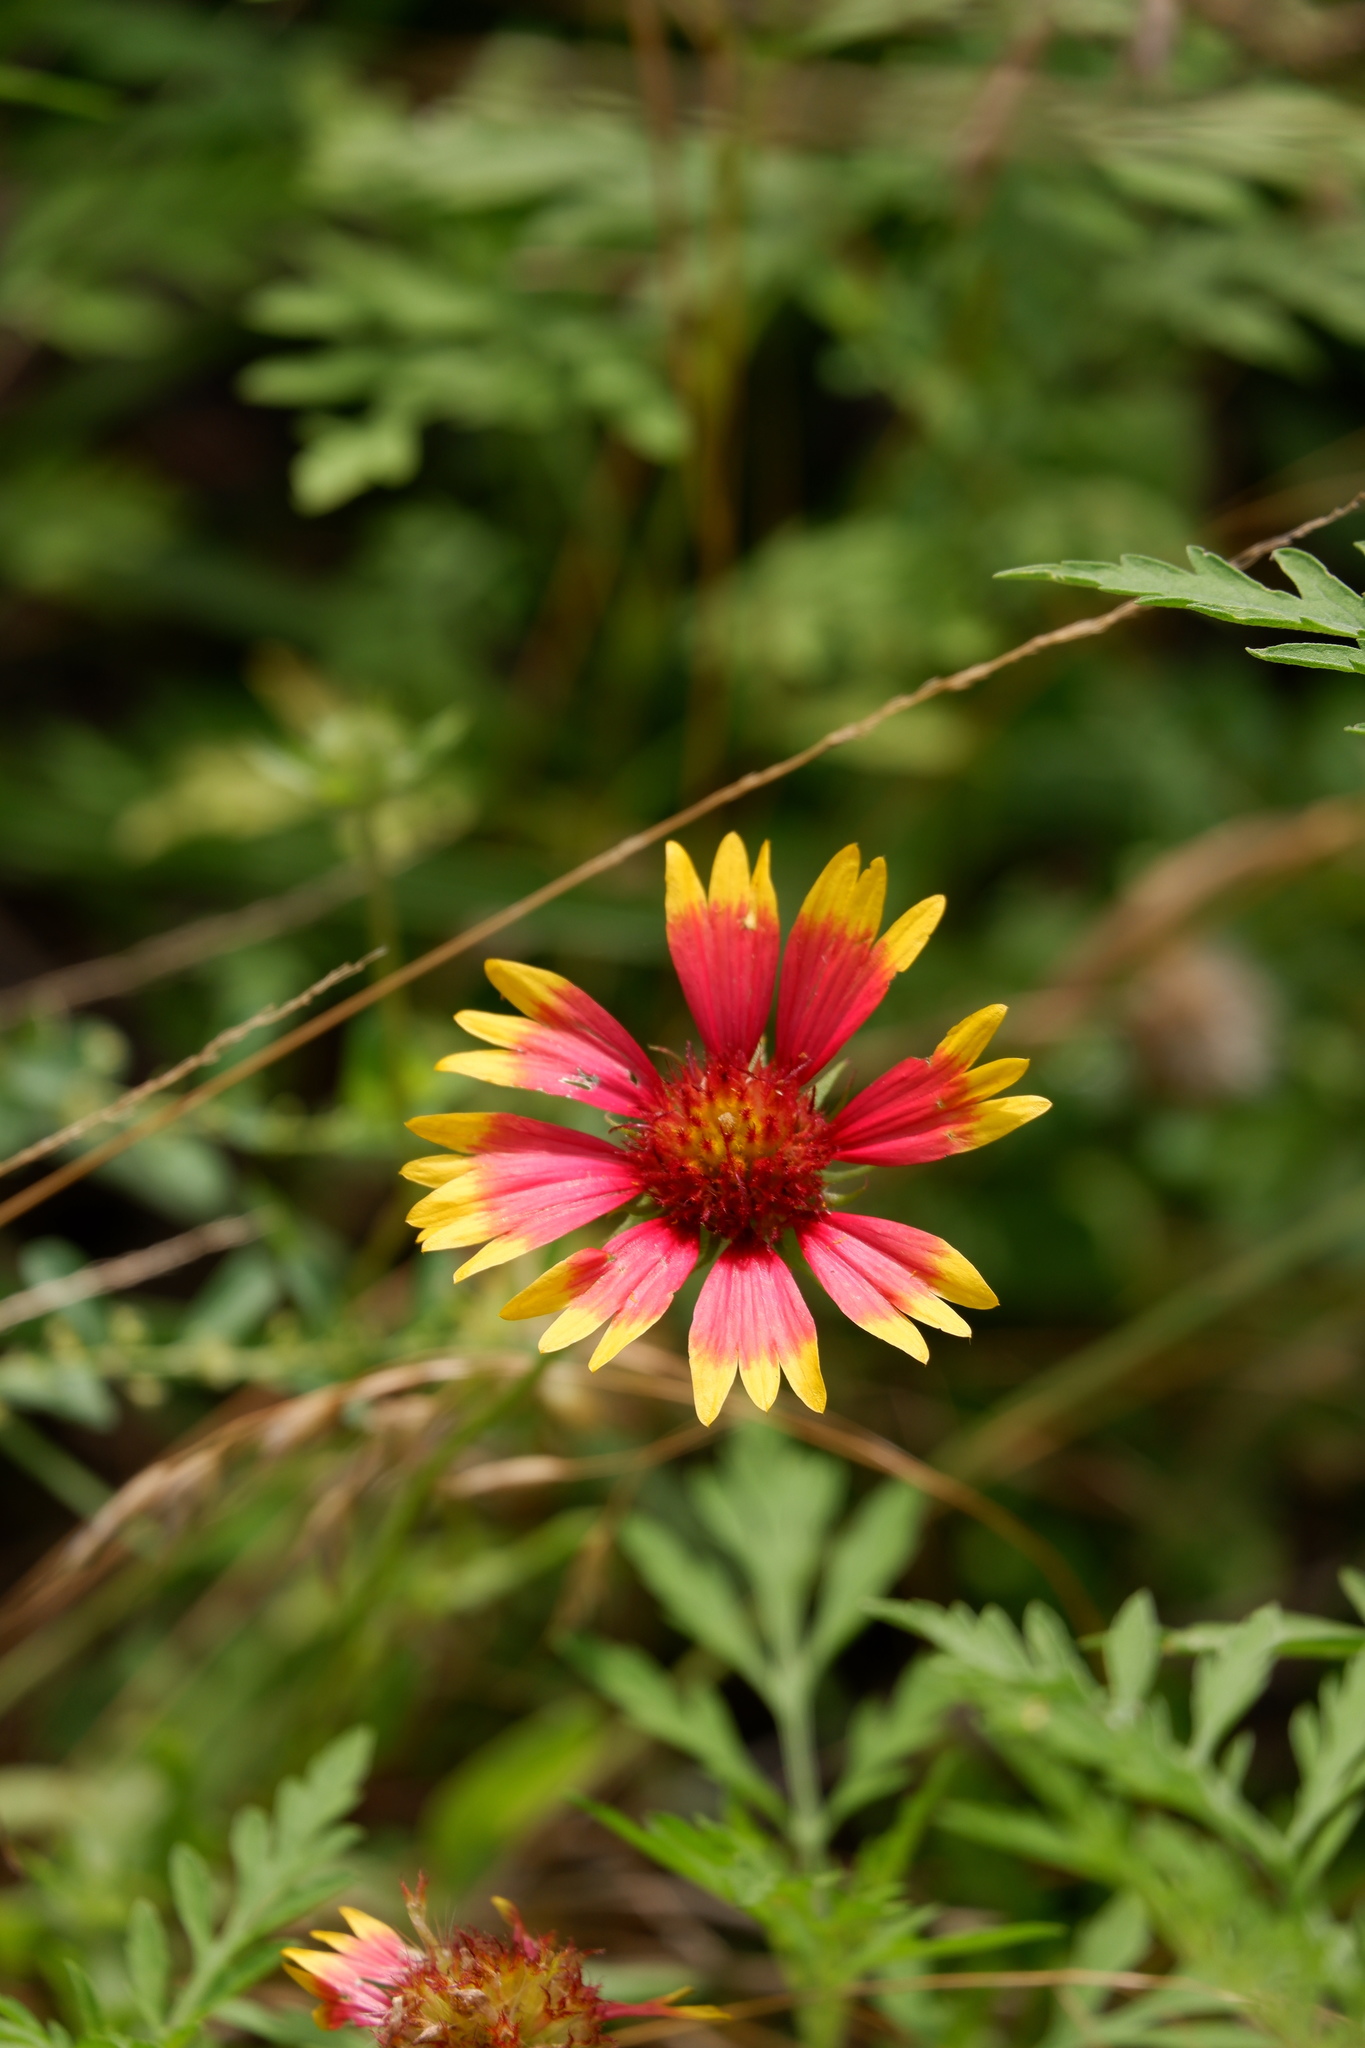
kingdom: Plantae
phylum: Tracheophyta
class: Magnoliopsida
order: Asterales
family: Asteraceae
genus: Gaillardia
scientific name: Gaillardia pulchella
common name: Firewheel
